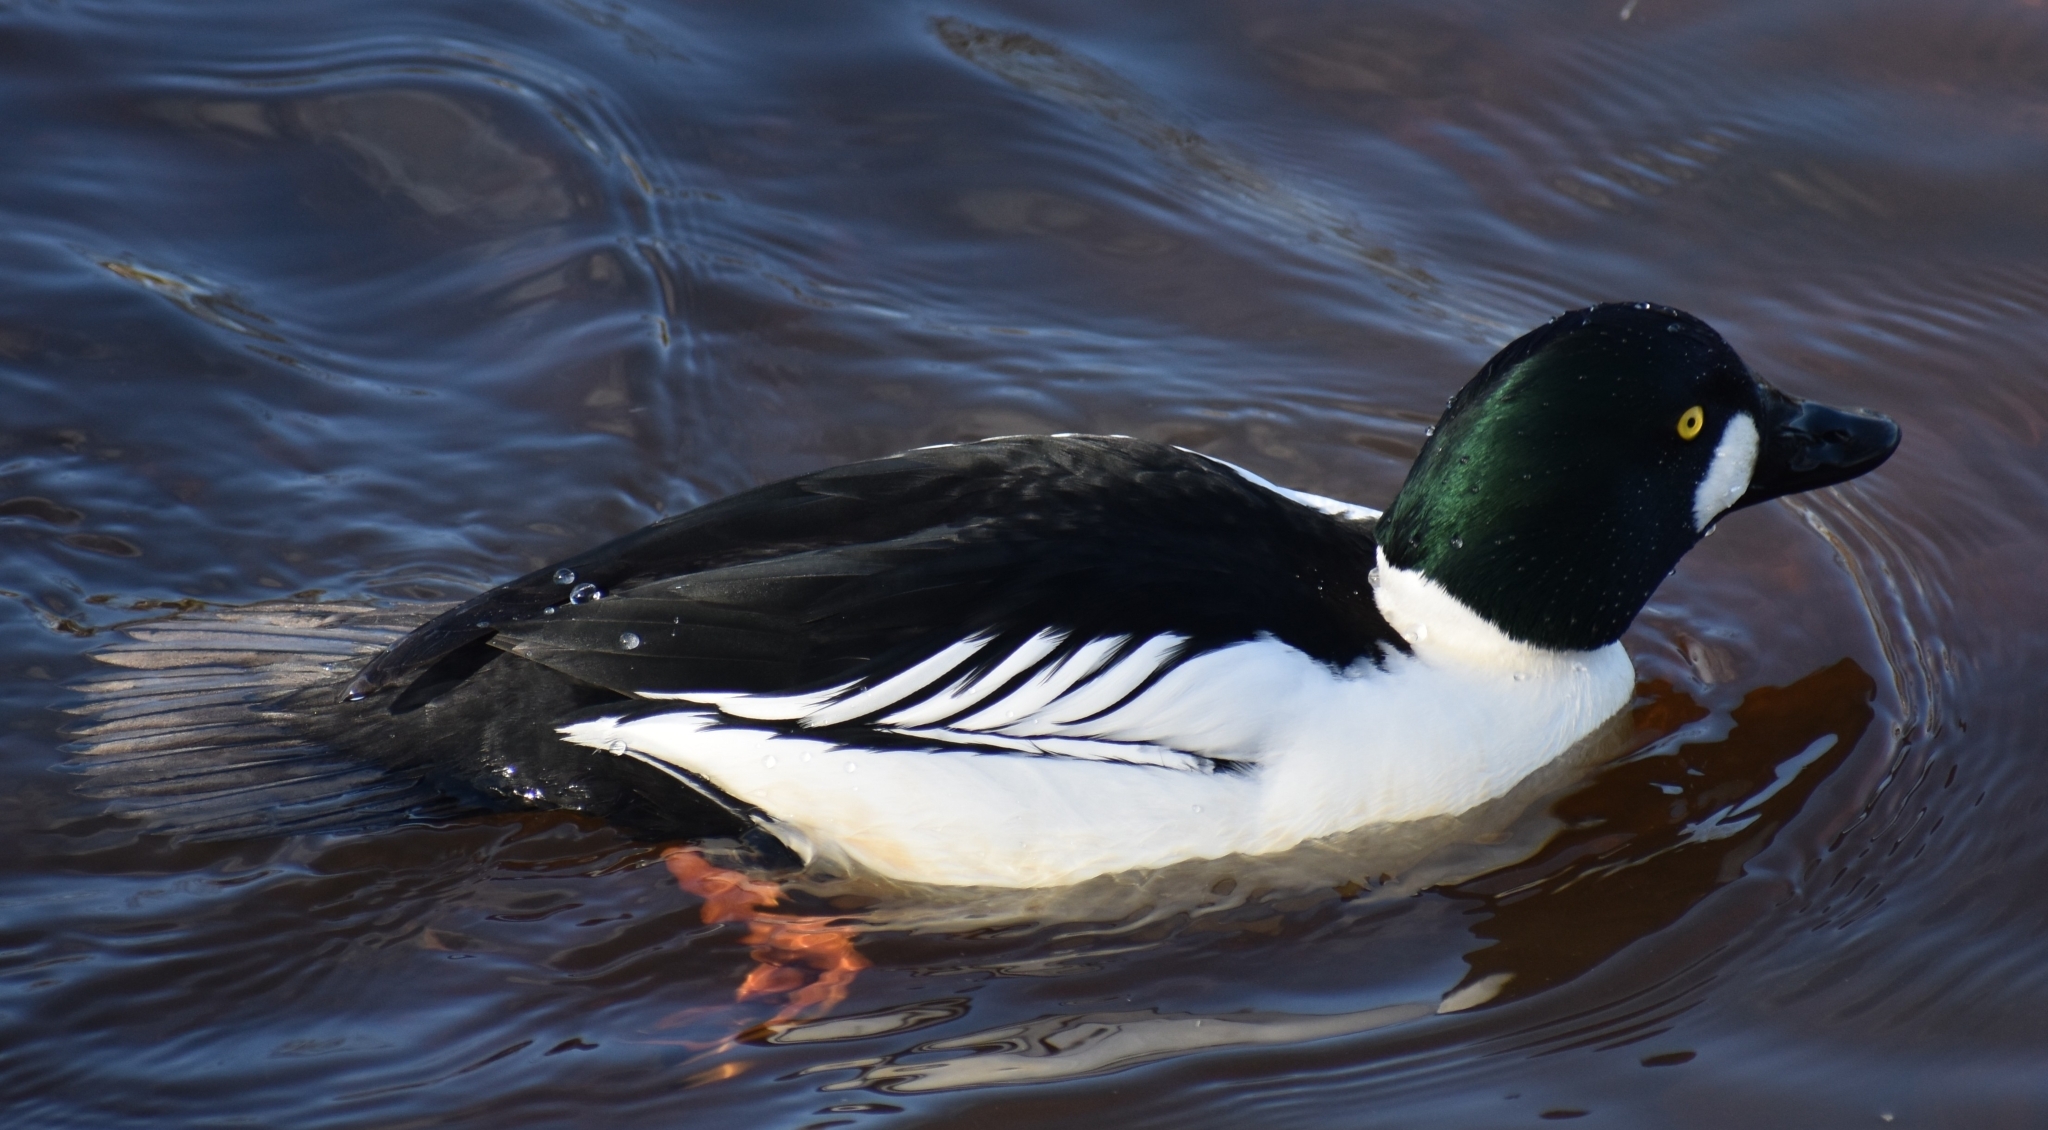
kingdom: Animalia
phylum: Chordata
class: Aves
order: Anseriformes
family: Anatidae
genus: Bucephala
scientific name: Bucephala clangula
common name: Common goldeneye
